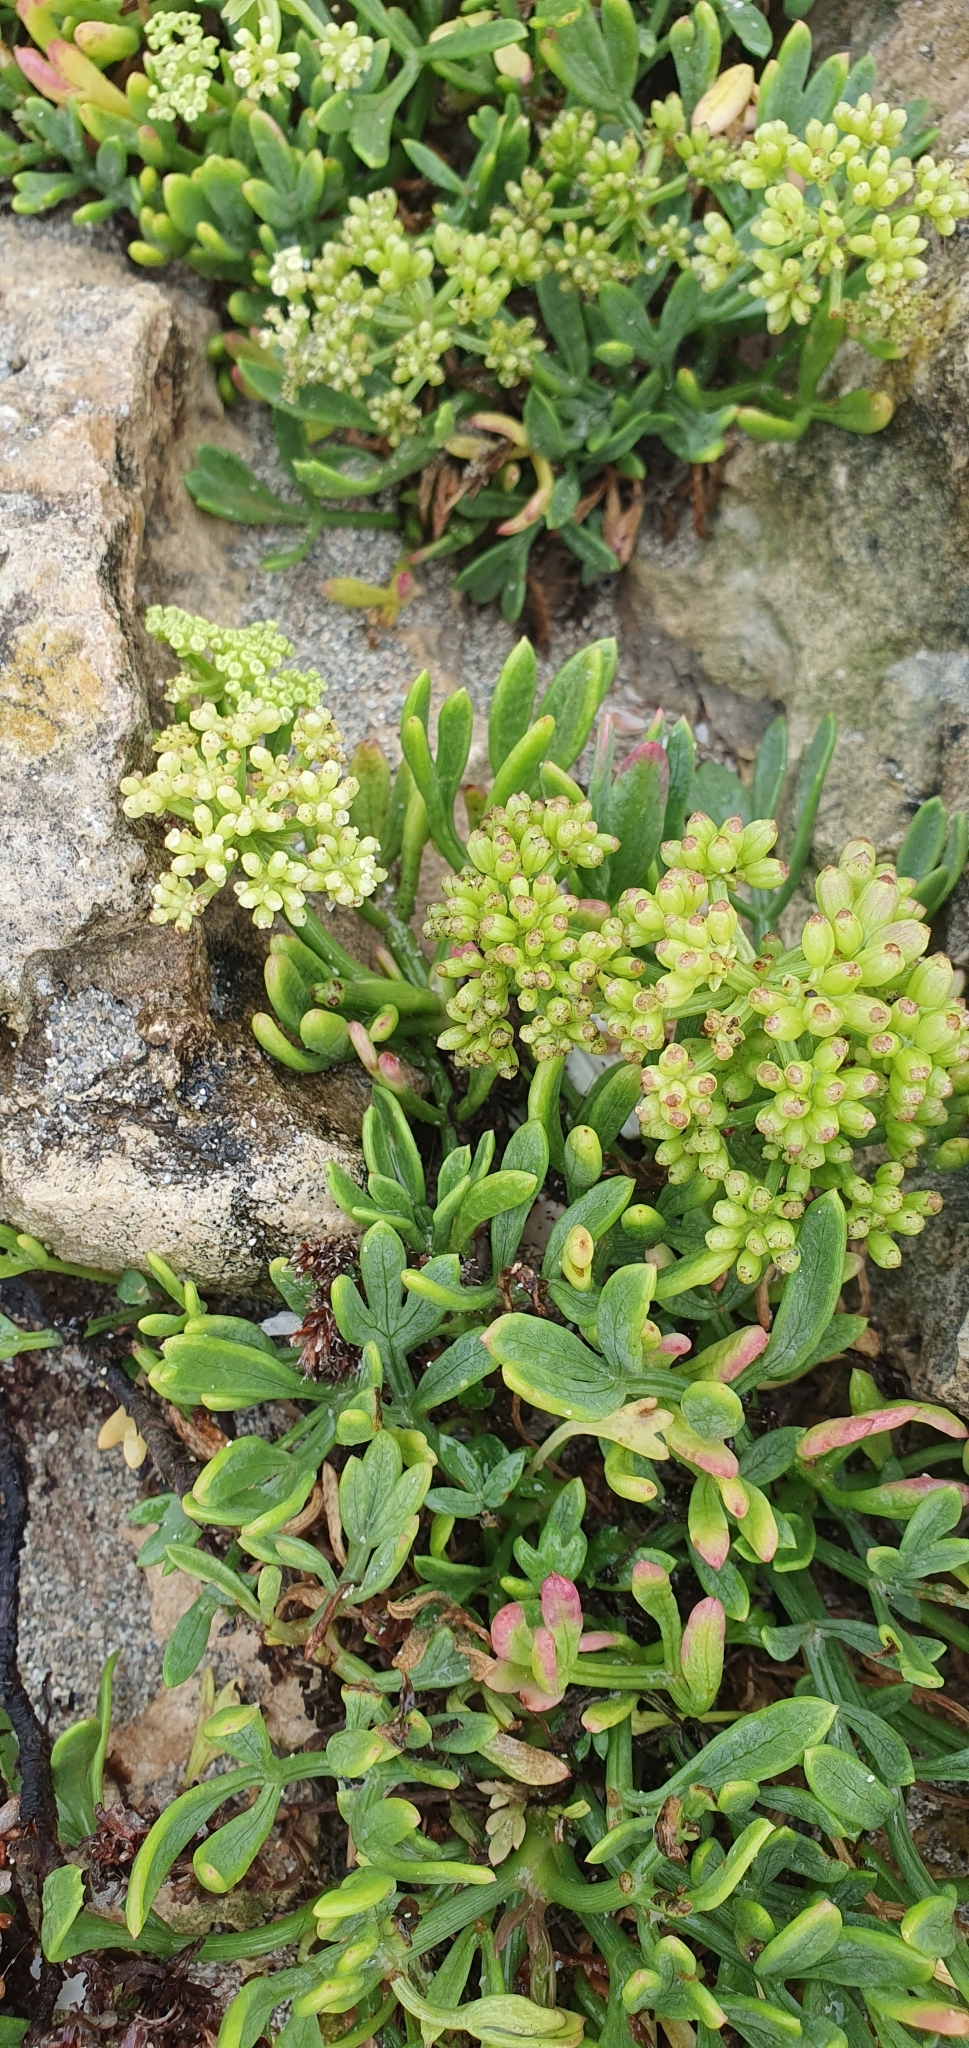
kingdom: Plantae
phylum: Tracheophyta
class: Magnoliopsida
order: Apiales
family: Apiaceae
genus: Crithmum
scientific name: Crithmum maritimum
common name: Rock samphire
